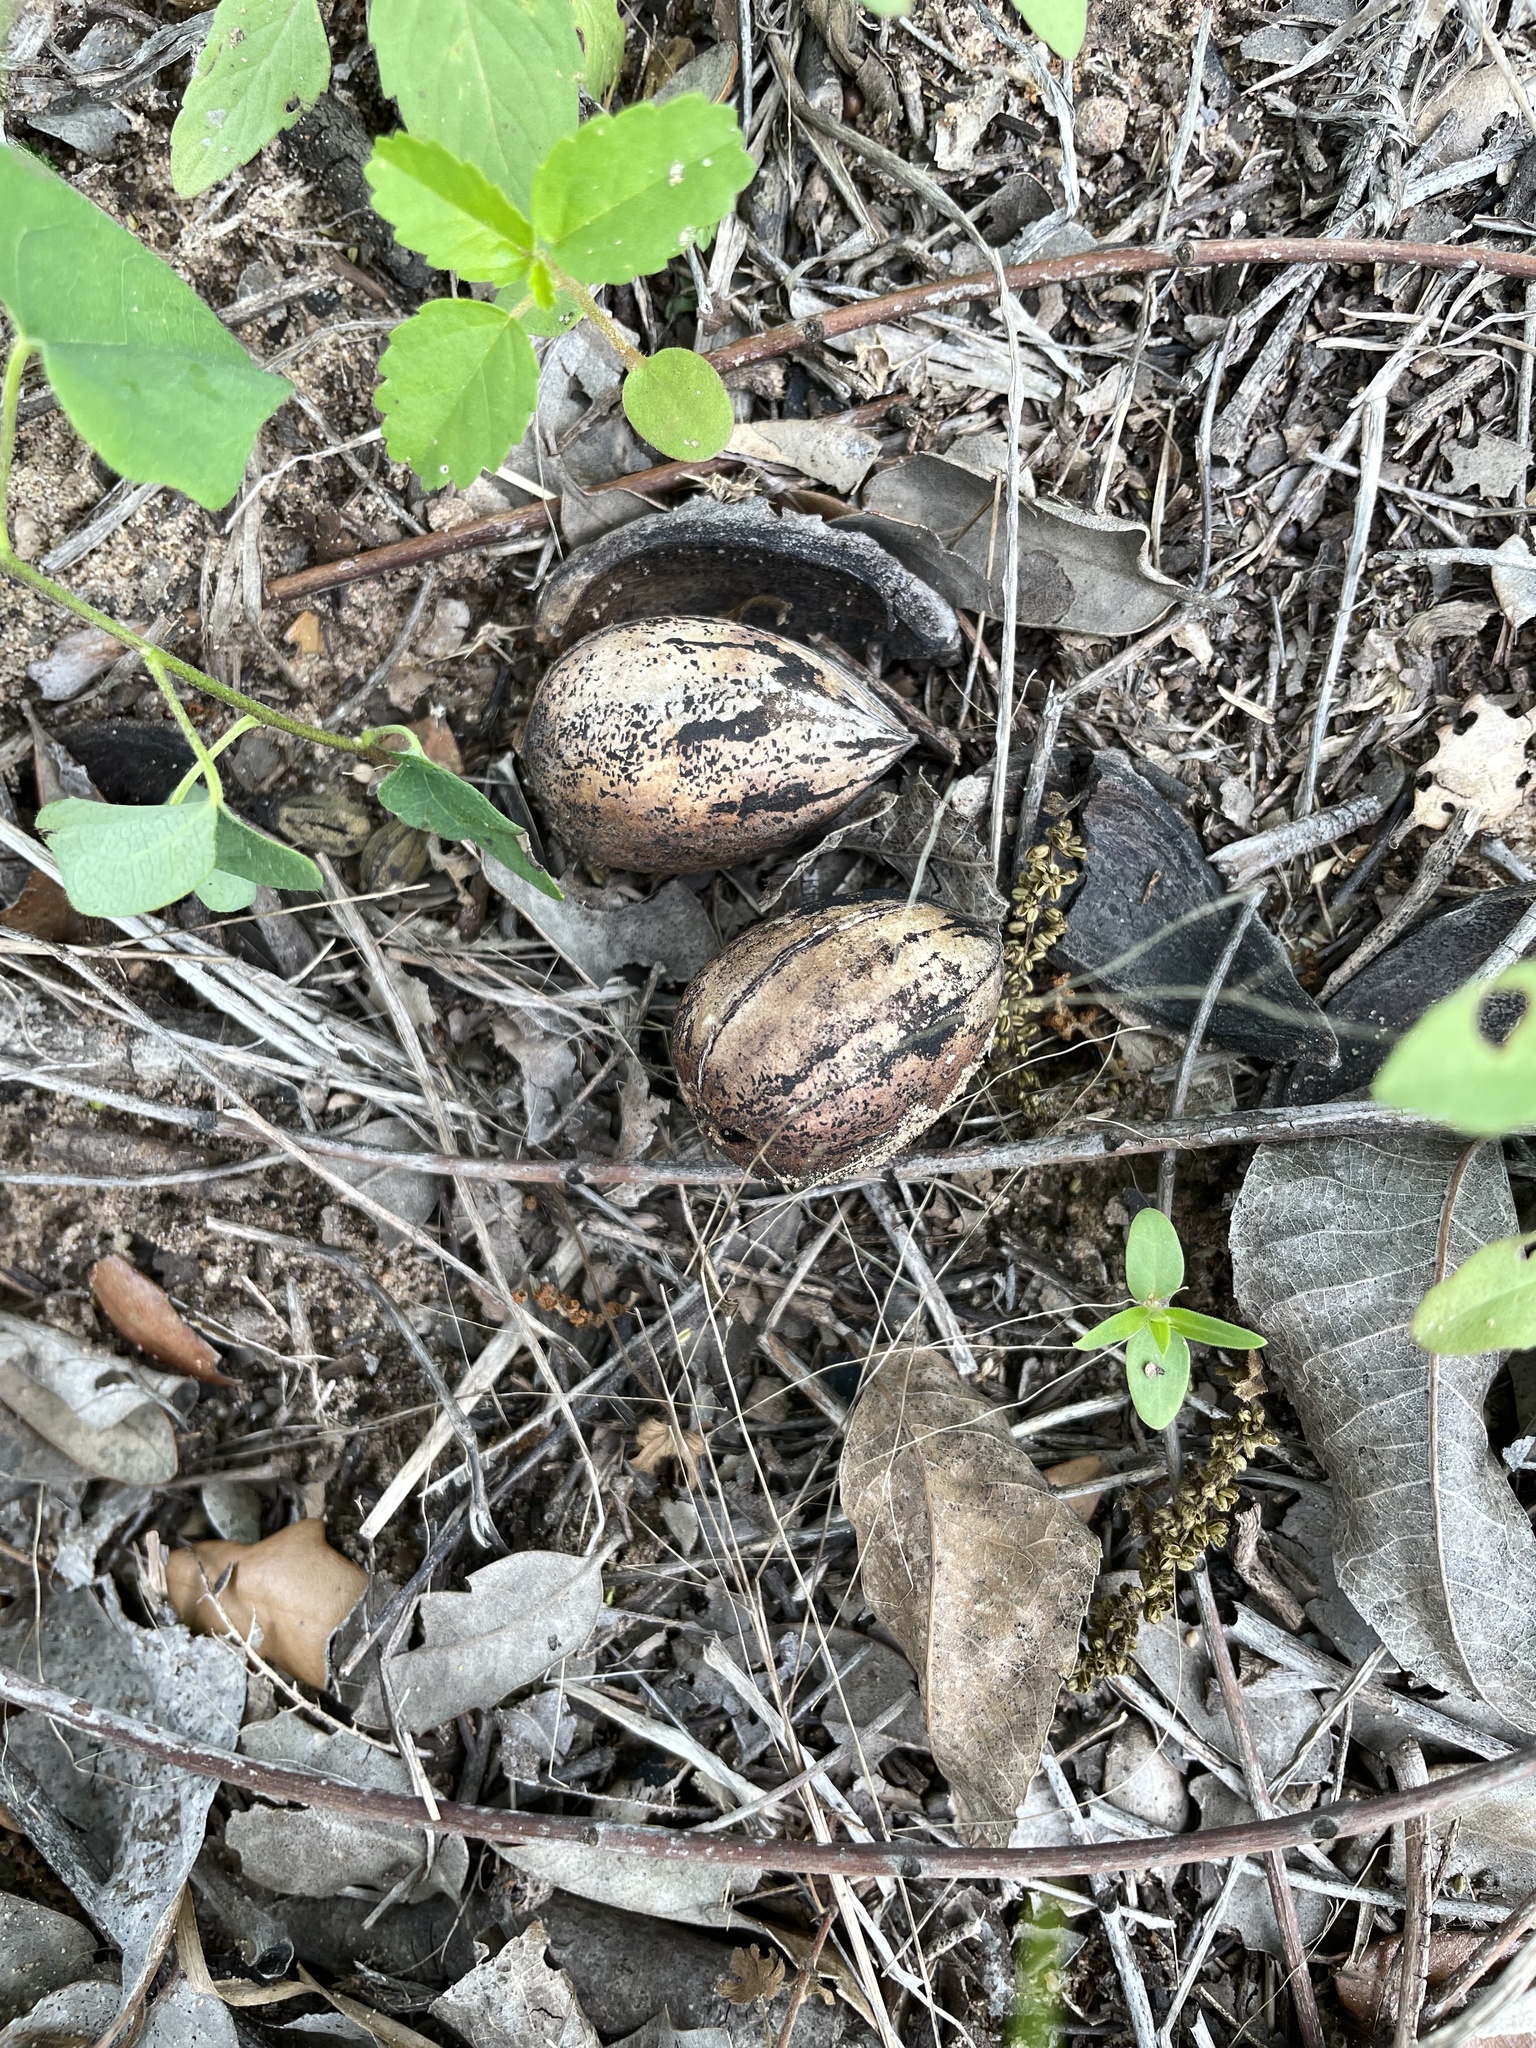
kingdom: Plantae
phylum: Tracheophyta
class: Magnoliopsida
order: Fagales
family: Juglandaceae
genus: Carya
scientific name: Carya illinoinensis
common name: Pecan
